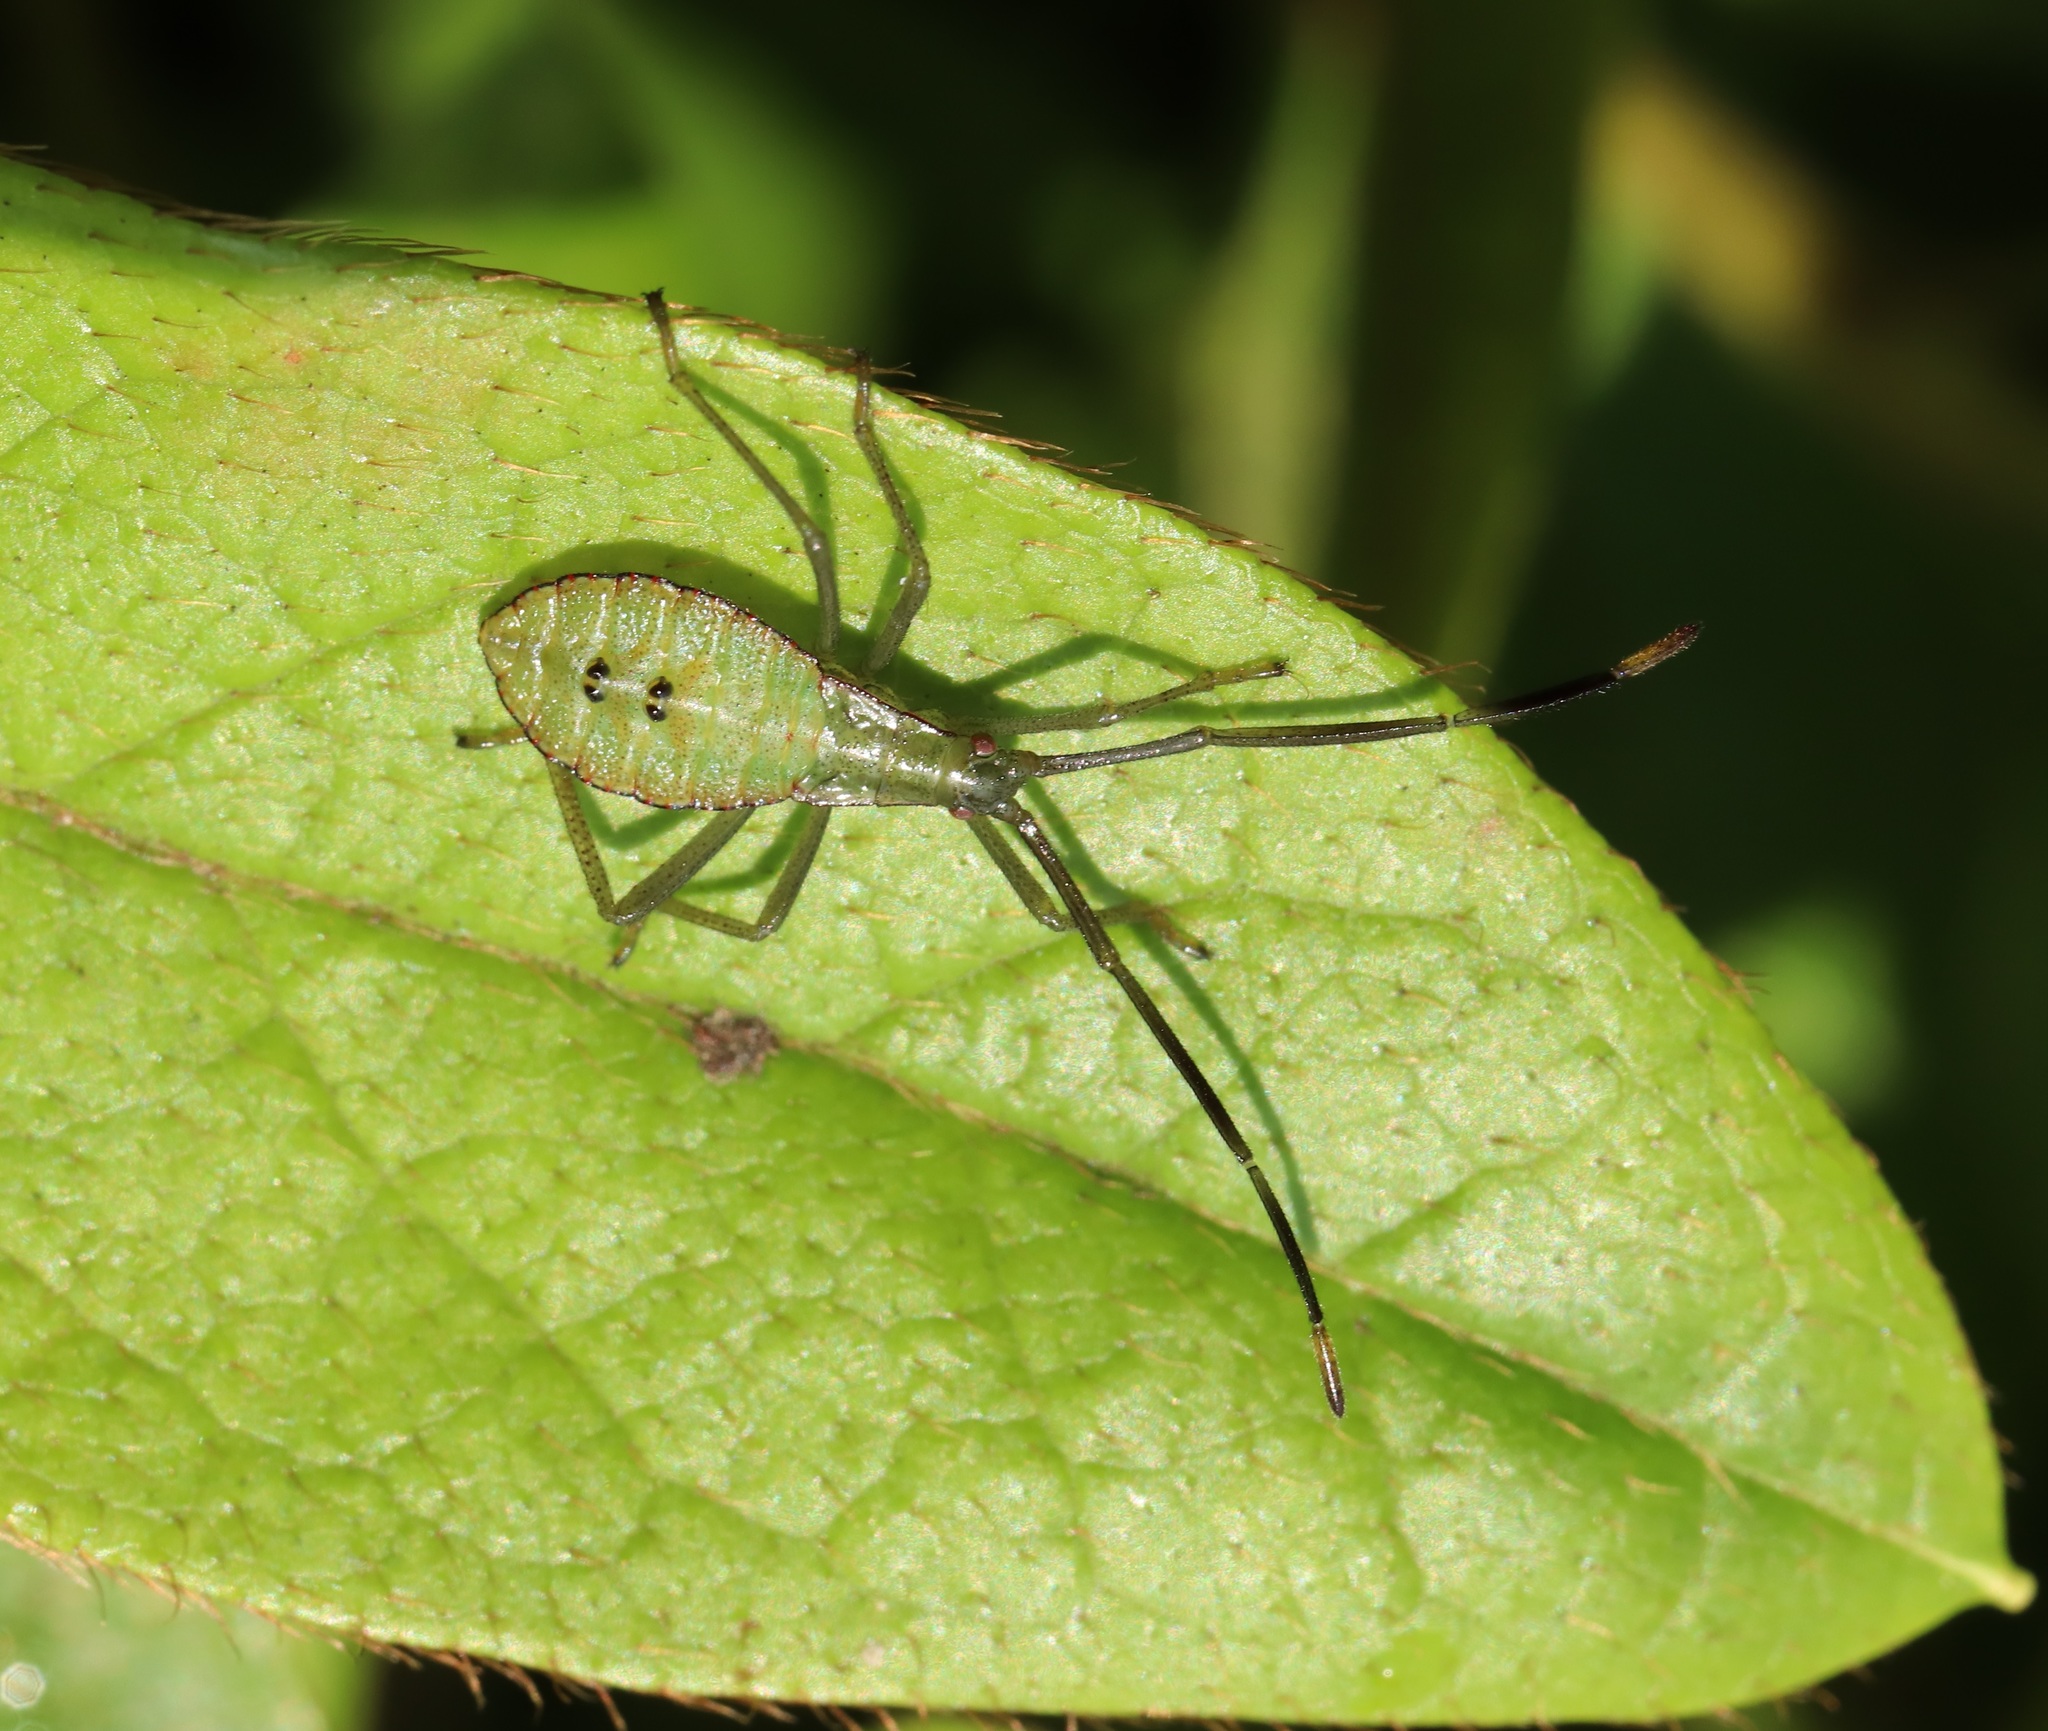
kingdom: Animalia
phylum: Arthropoda
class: Insecta
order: Hemiptera
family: Coreidae
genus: Homoeocerus
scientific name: Homoeocerus striicornis
